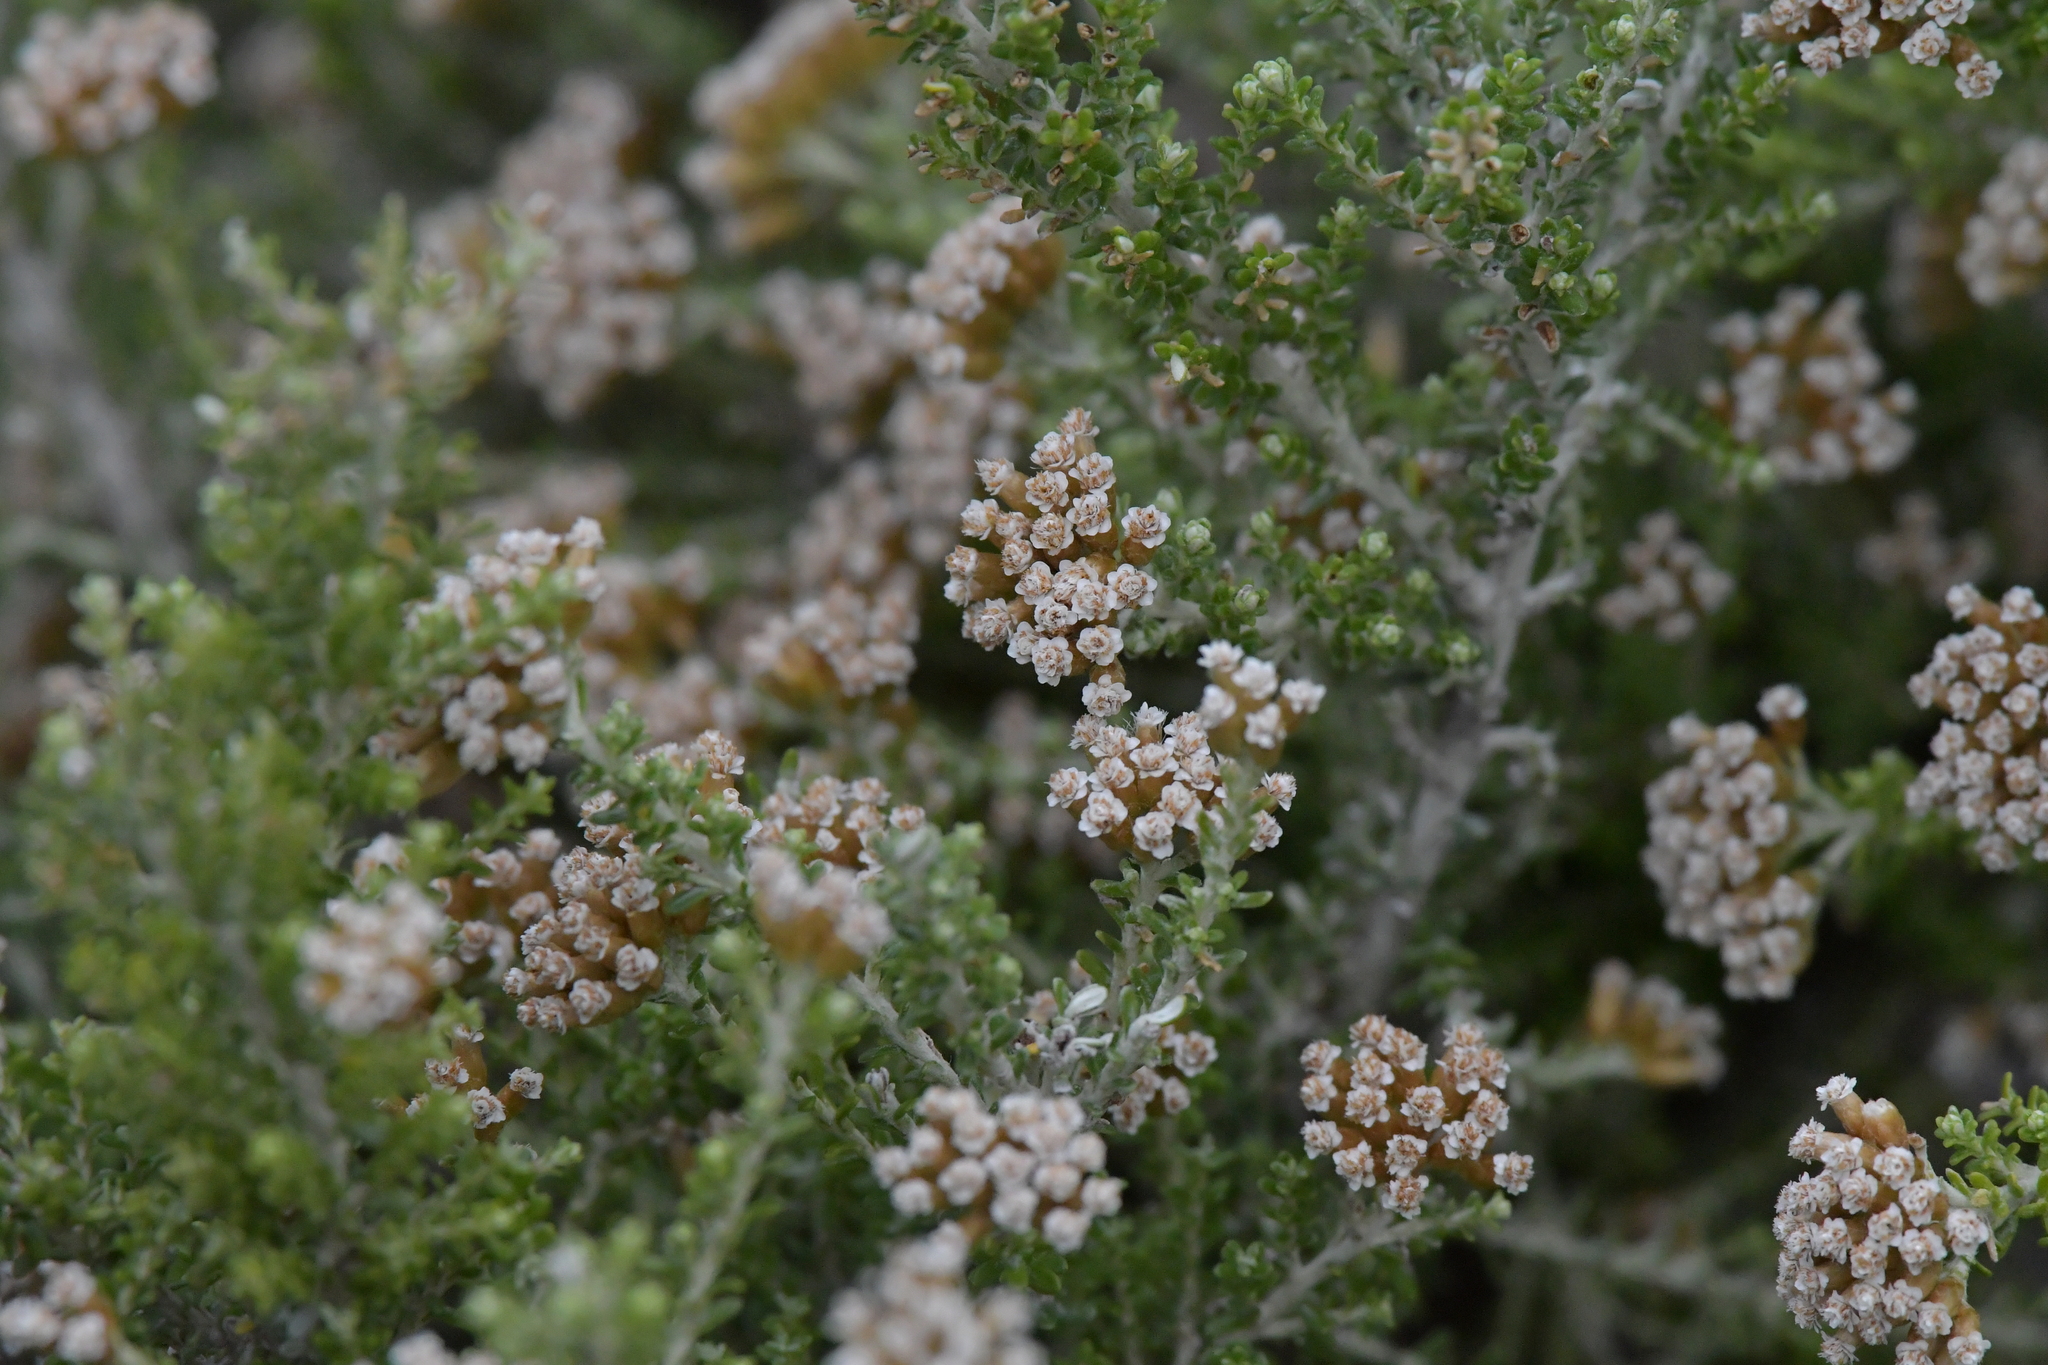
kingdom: Plantae
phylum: Tracheophyta
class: Magnoliopsida
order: Asterales
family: Asteraceae
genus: Ozothamnus
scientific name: Ozothamnus leptophyllus
